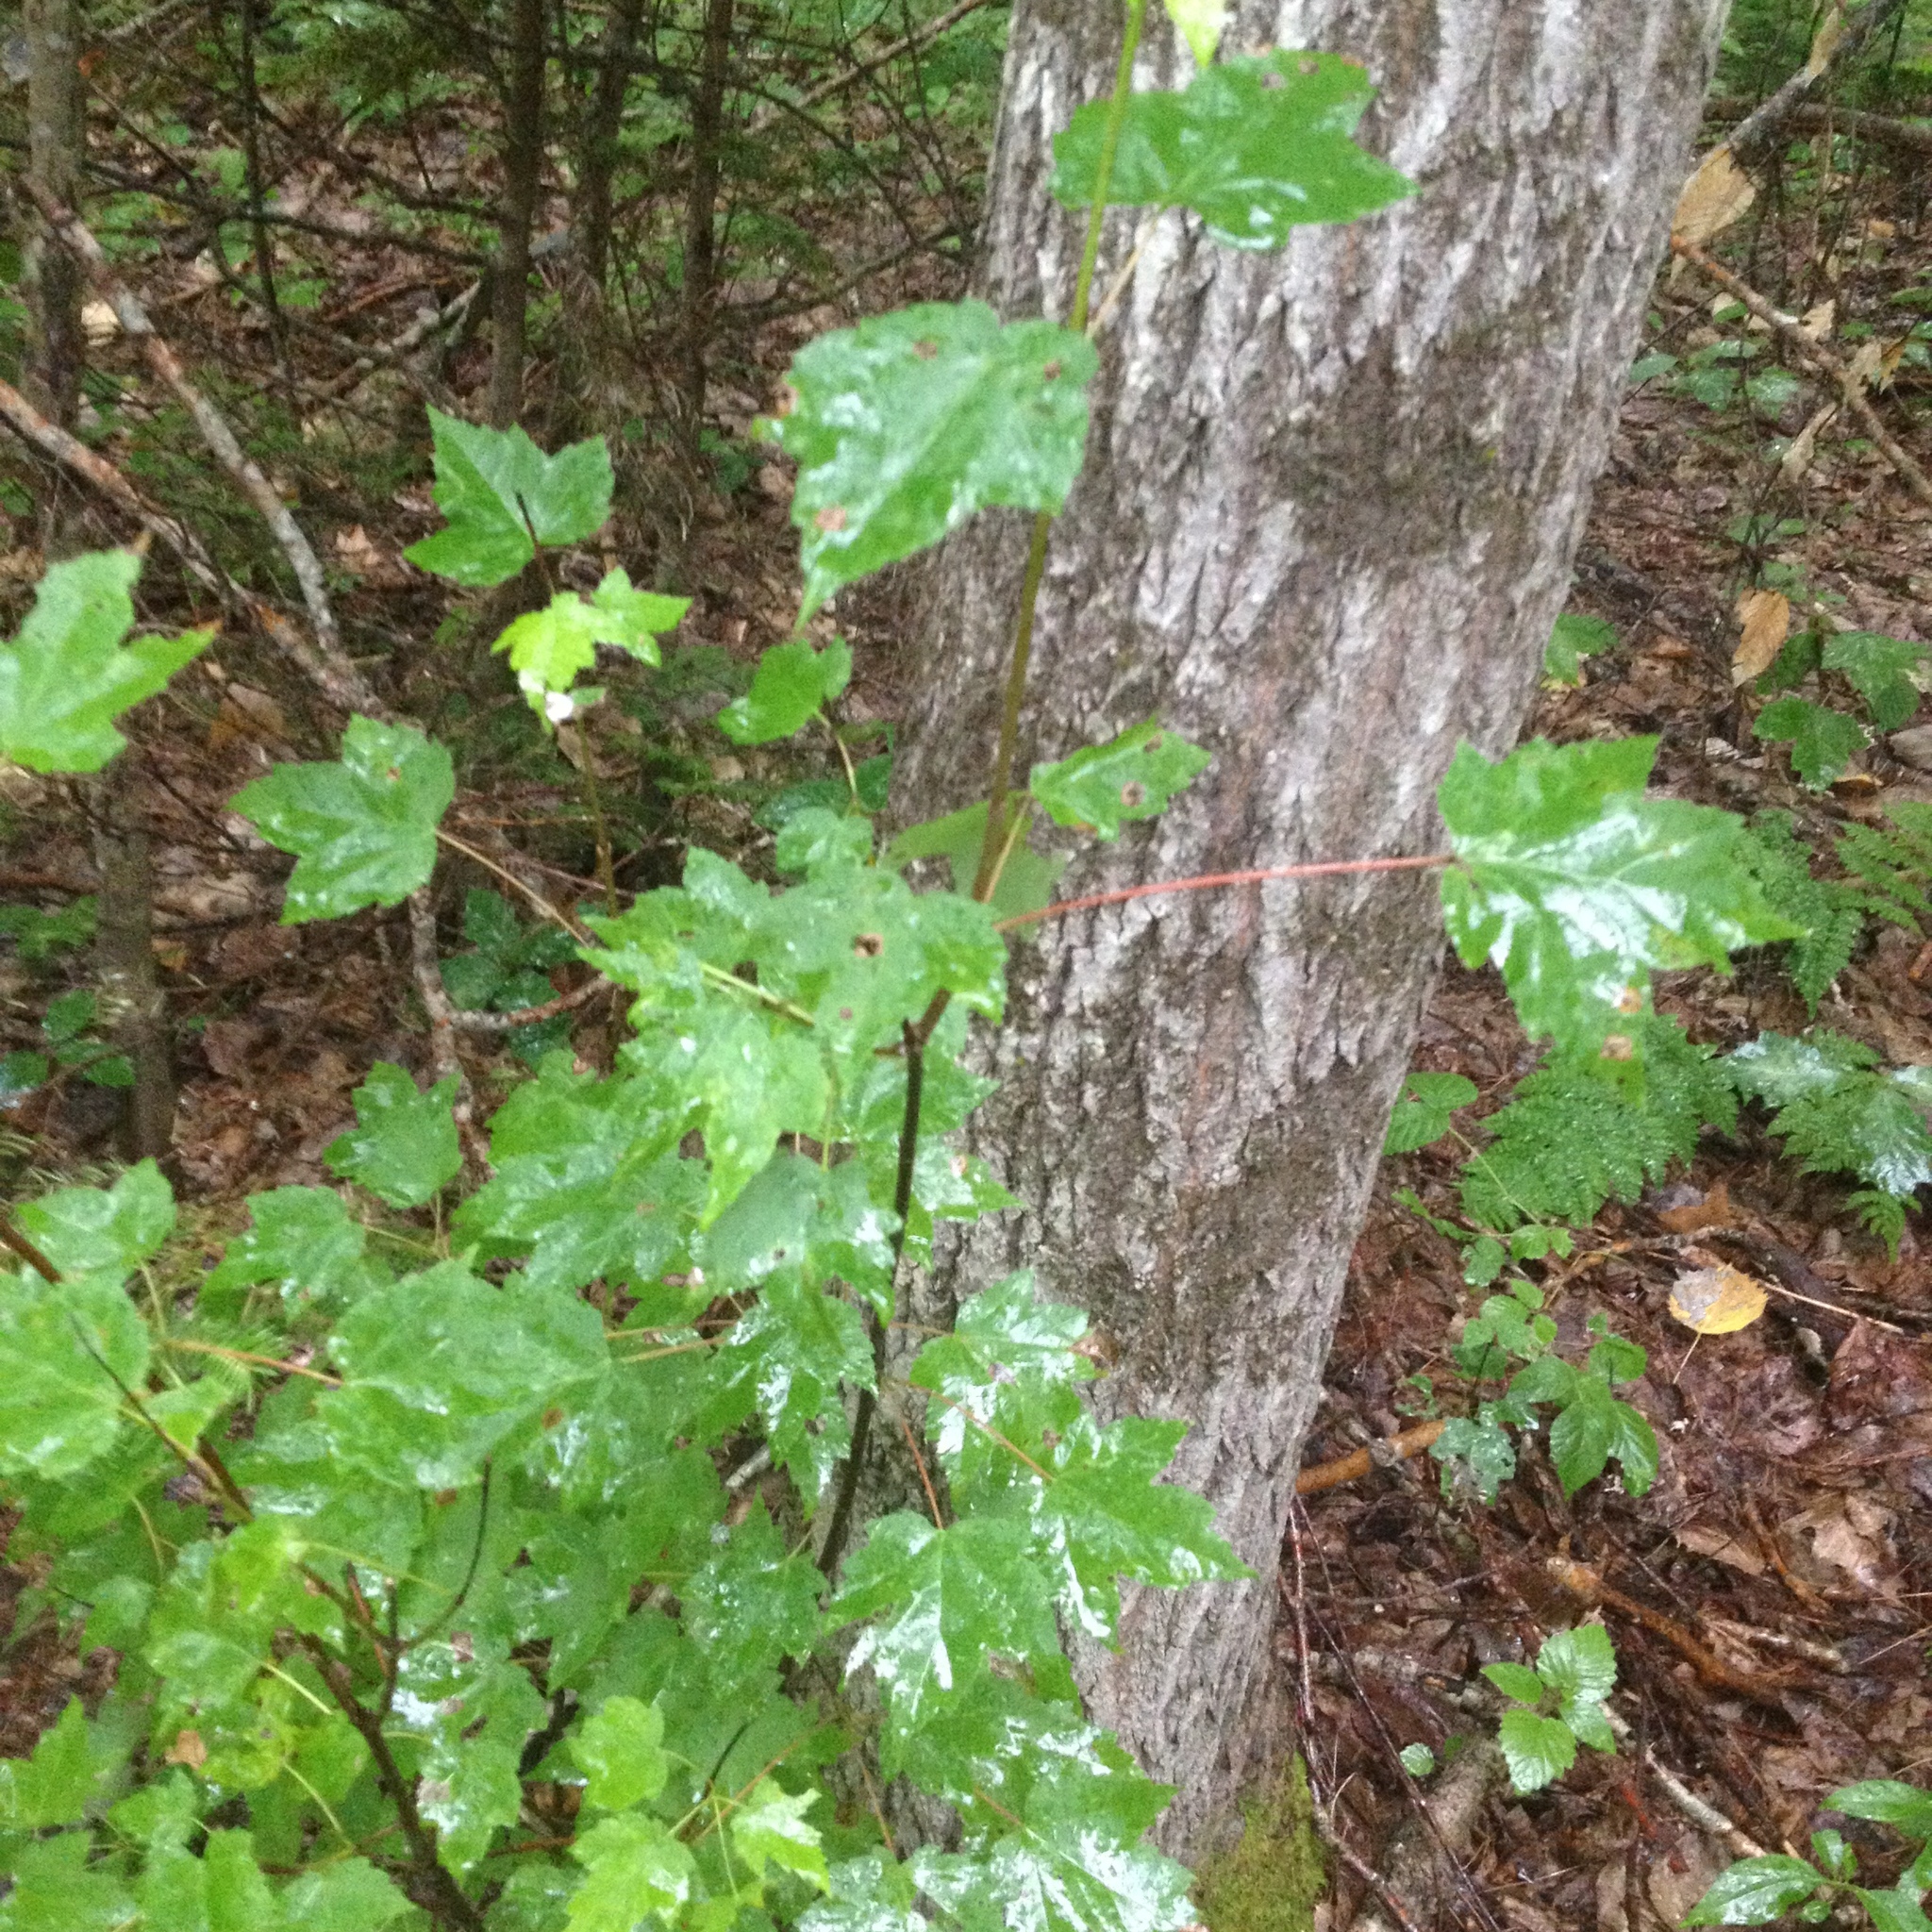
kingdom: Plantae
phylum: Tracheophyta
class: Magnoliopsida
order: Sapindales
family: Sapindaceae
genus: Acer
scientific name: Acer rubrum
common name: Red maple
